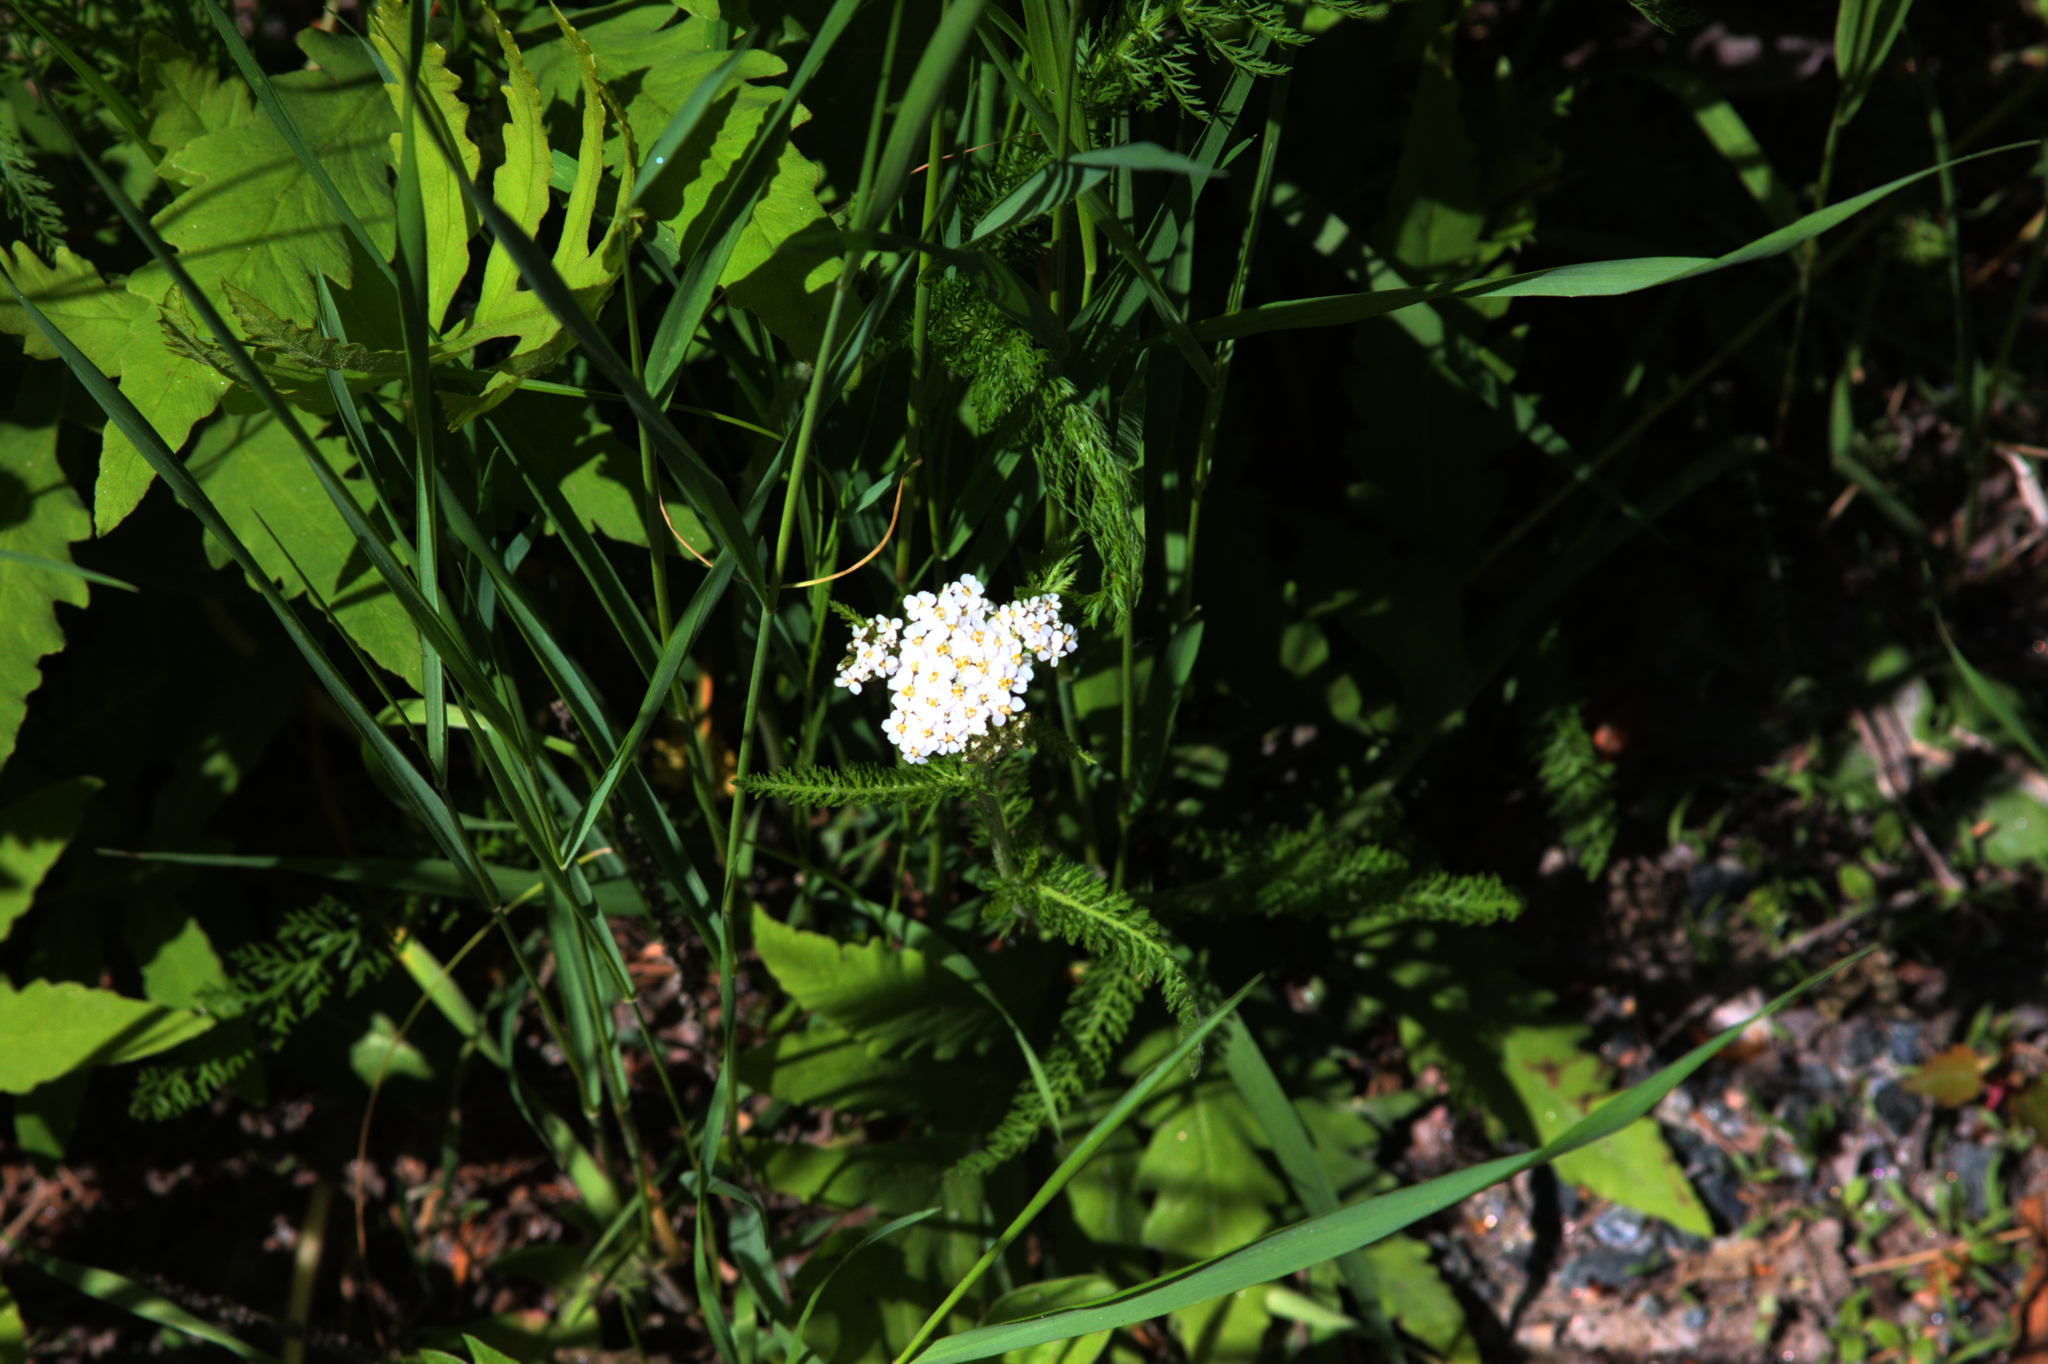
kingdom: Plantae
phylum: Tracheophyta
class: Magnoliopsida
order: Asterales
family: Asteraceae
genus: Achillea
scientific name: Achillea millefolium
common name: Yarrow
